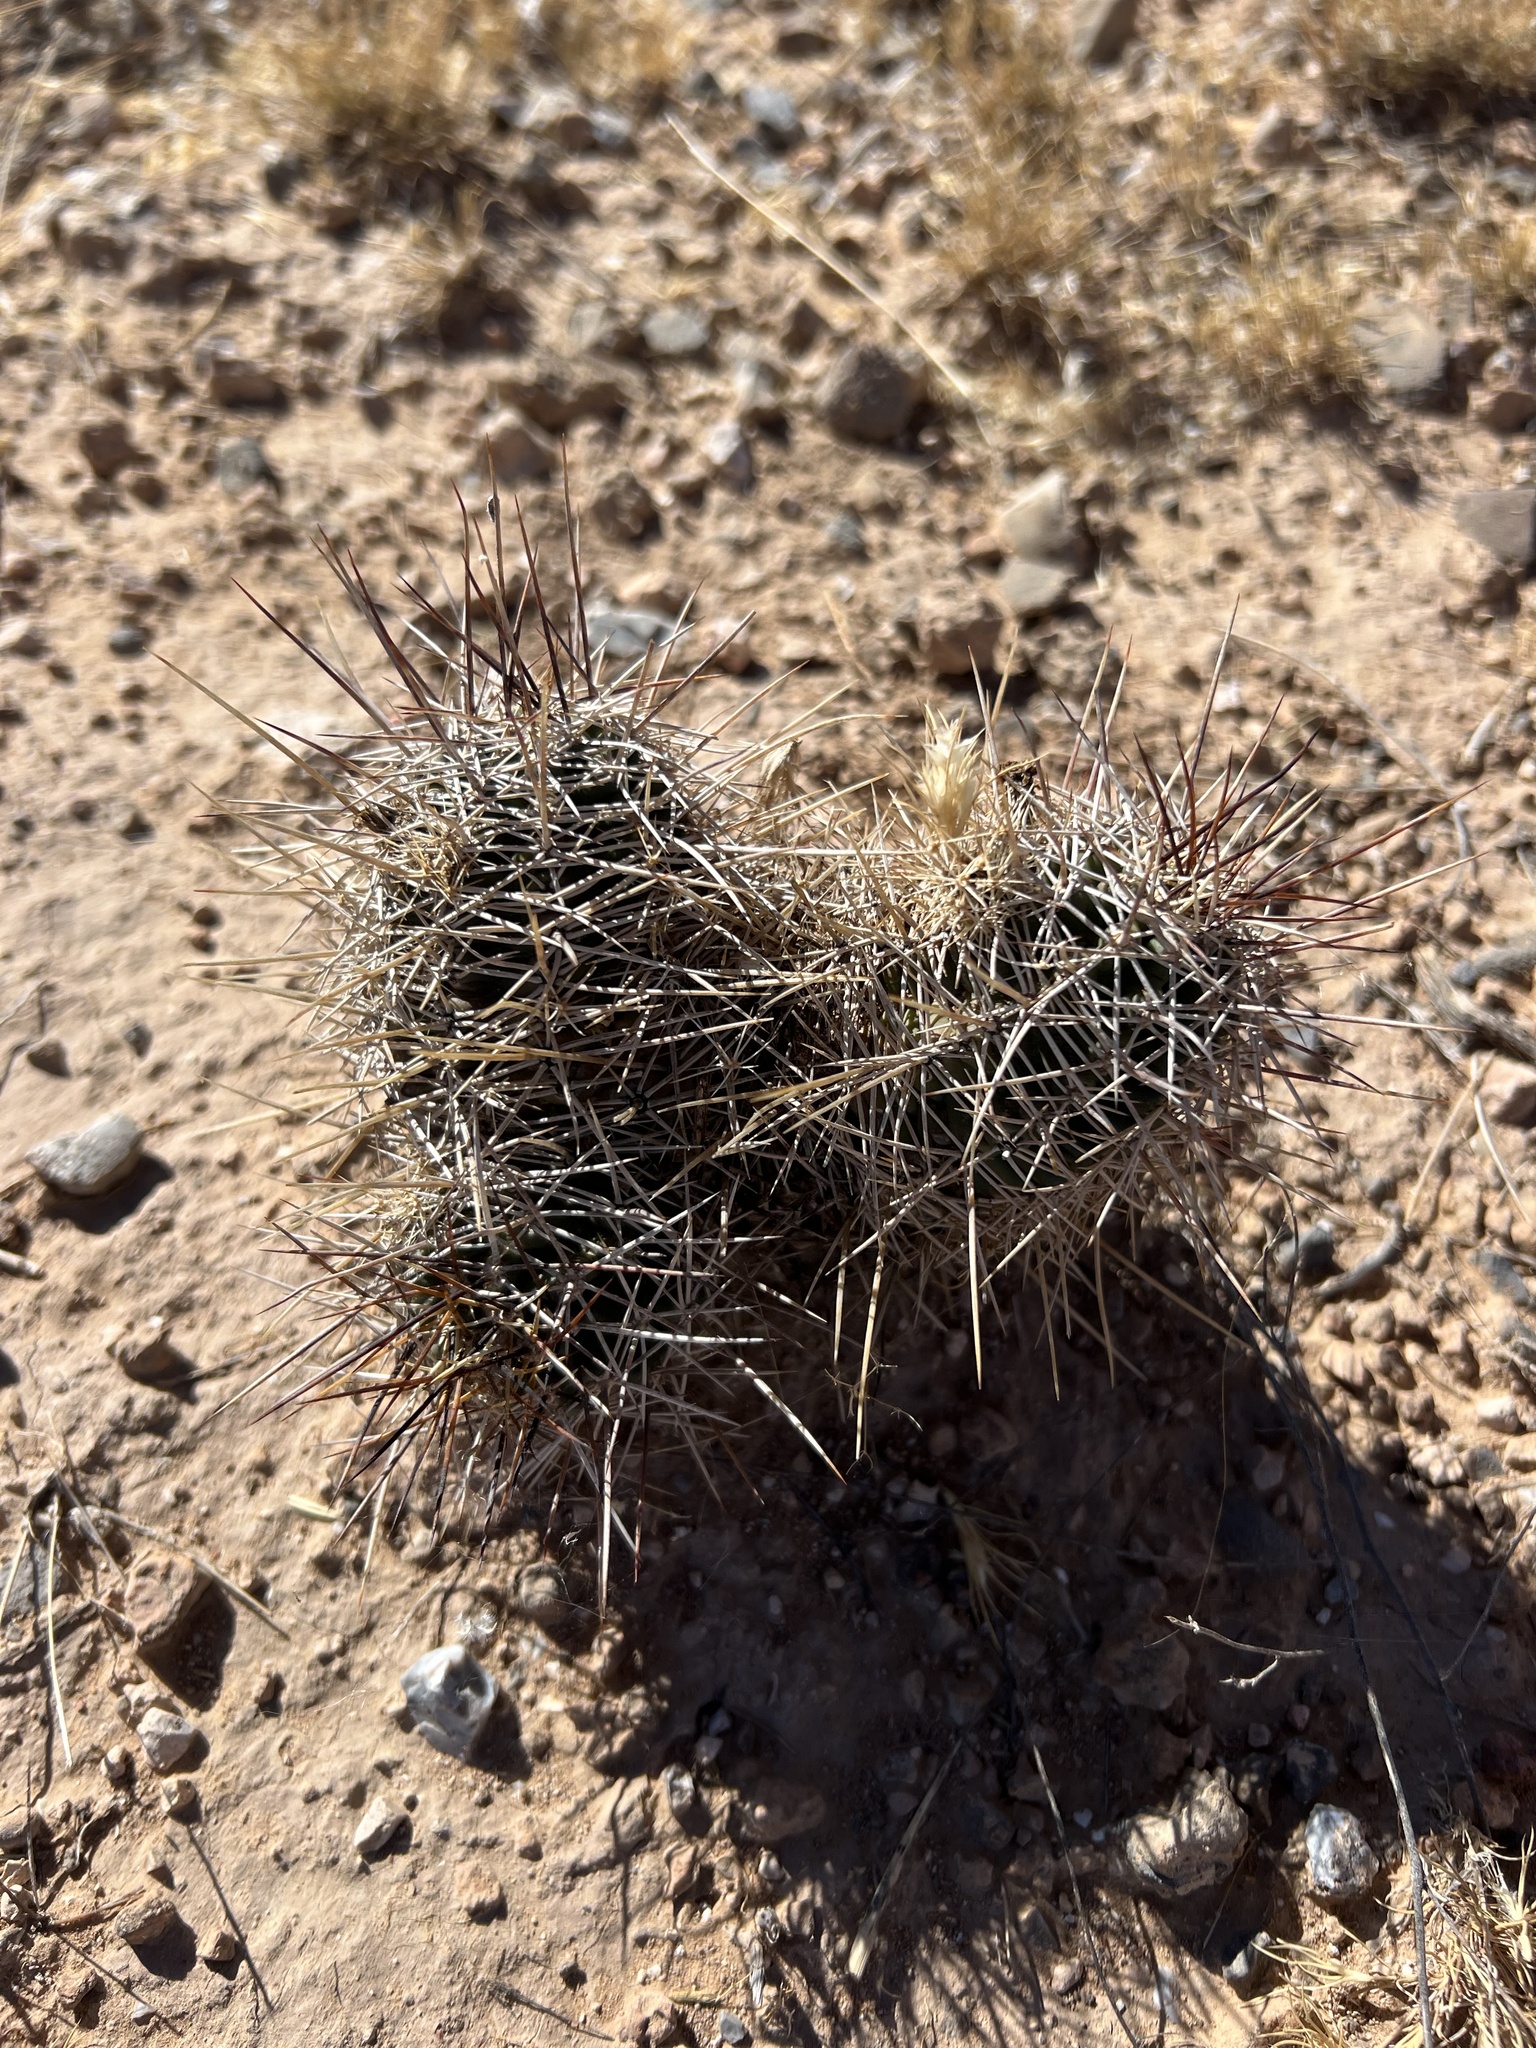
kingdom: Plantae
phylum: Tracheophyta
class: Magnoliopsida
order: Caryophyllales
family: Cactaceae
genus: Echinocereus
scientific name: Echinocereus fendleri
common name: Fendler's hedgehog cactus
